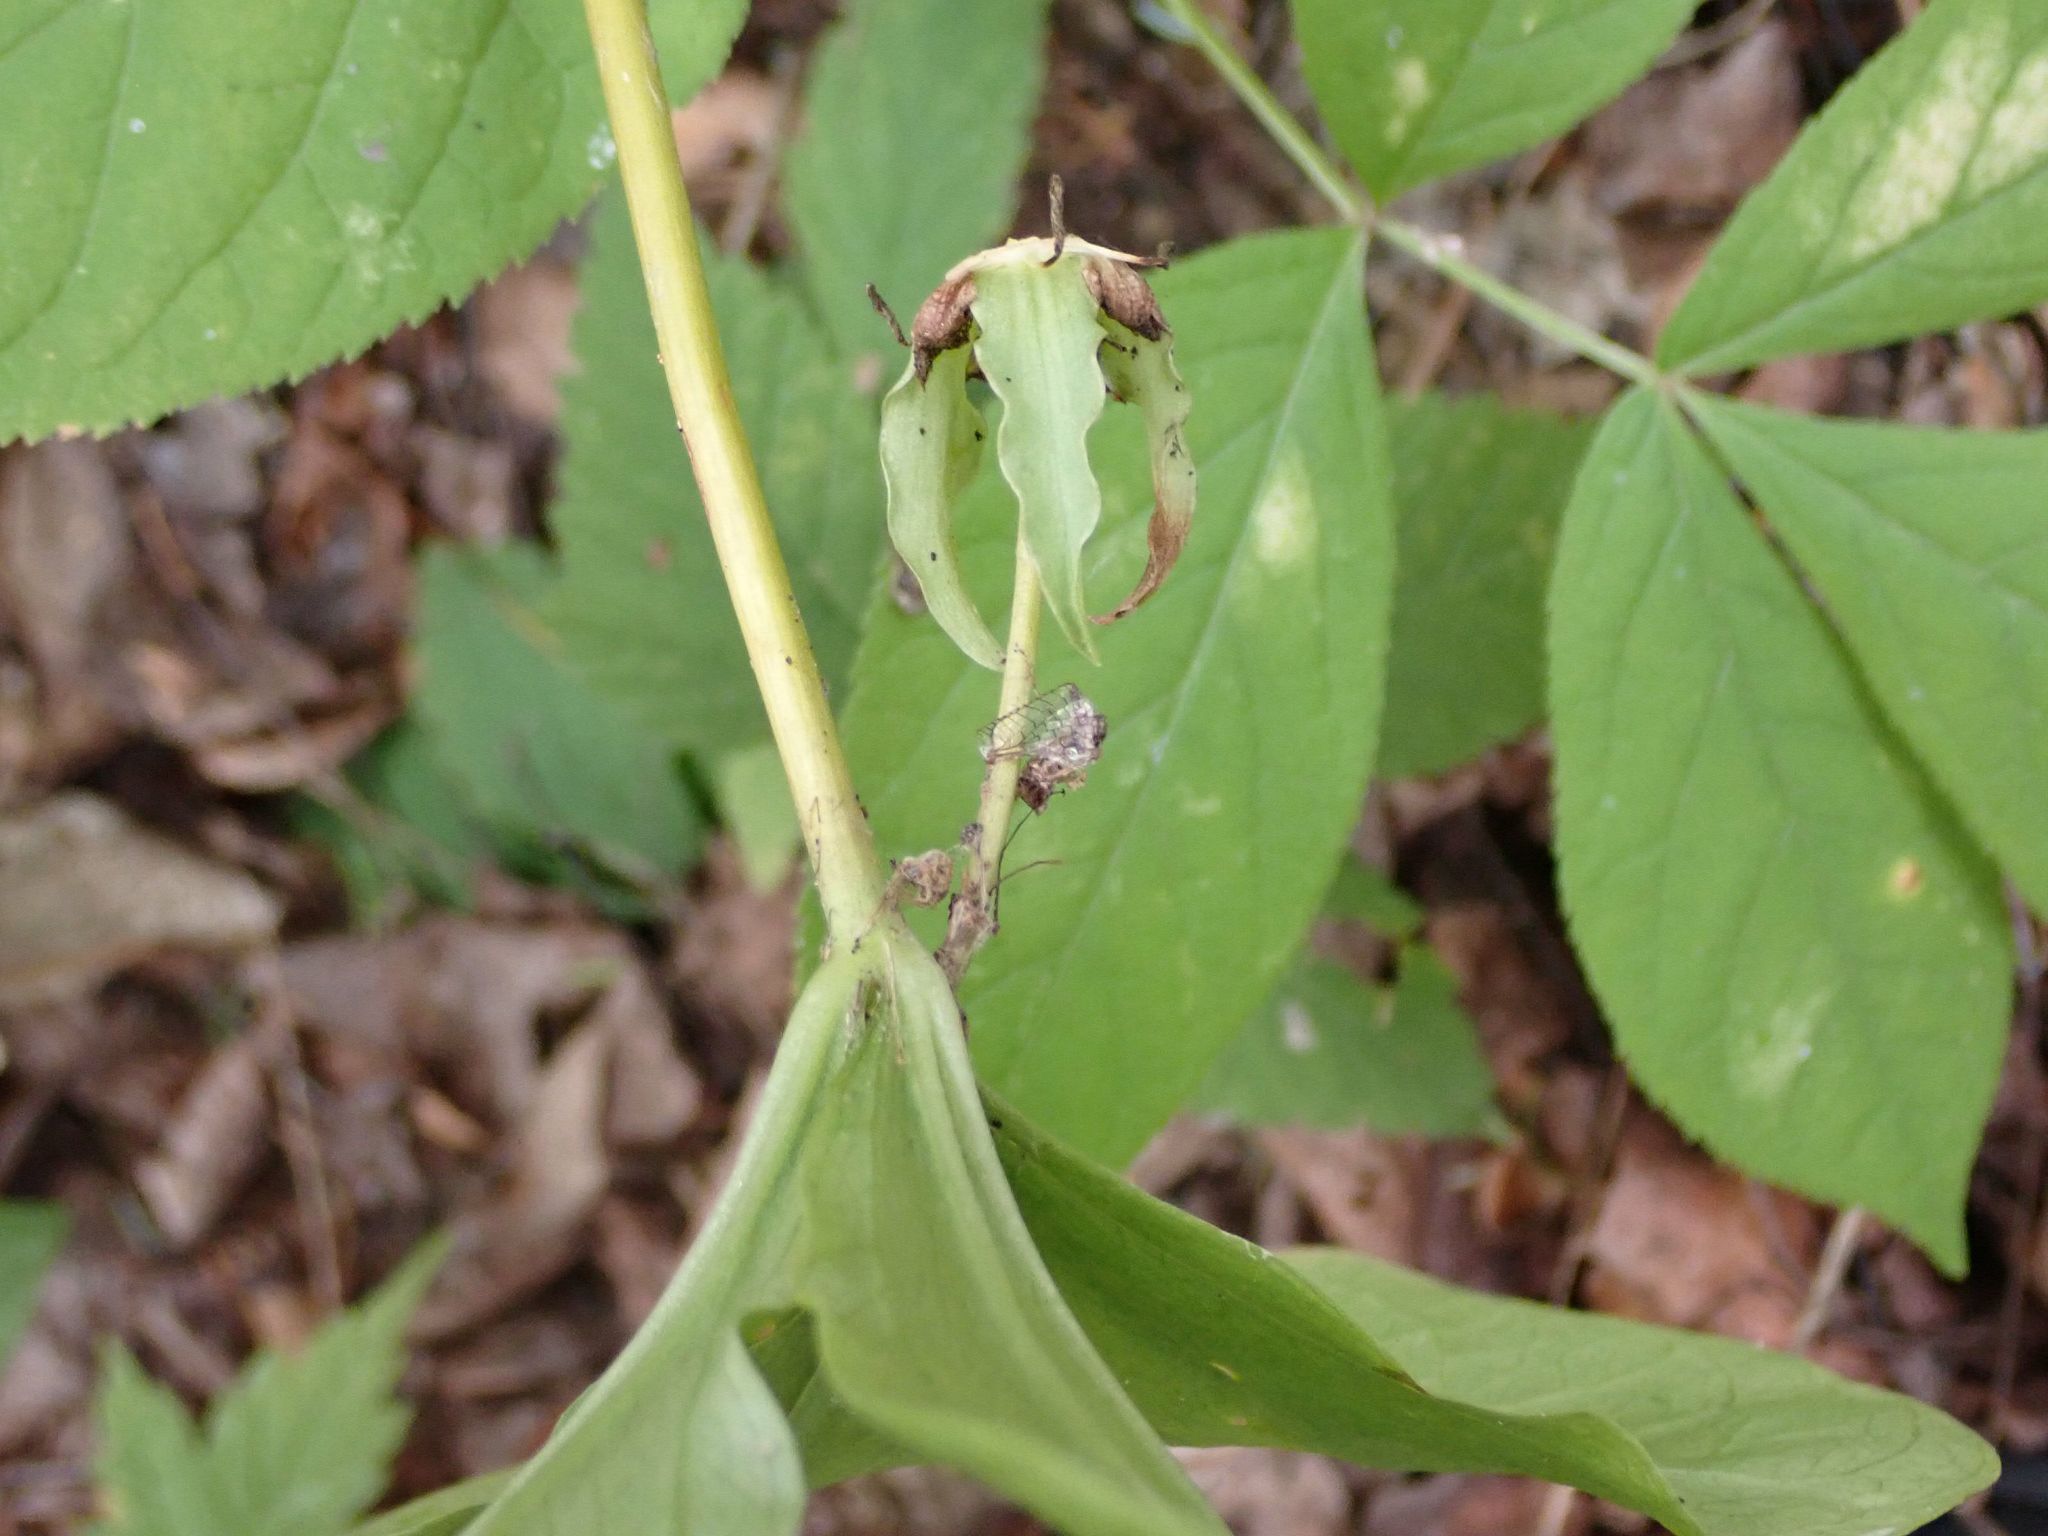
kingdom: Plantae
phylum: Tracheophyta
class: Liliopsida
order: Liliales
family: Melanthiaceae
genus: Trillium
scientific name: Trillium cernuum
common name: Nodding trillium
